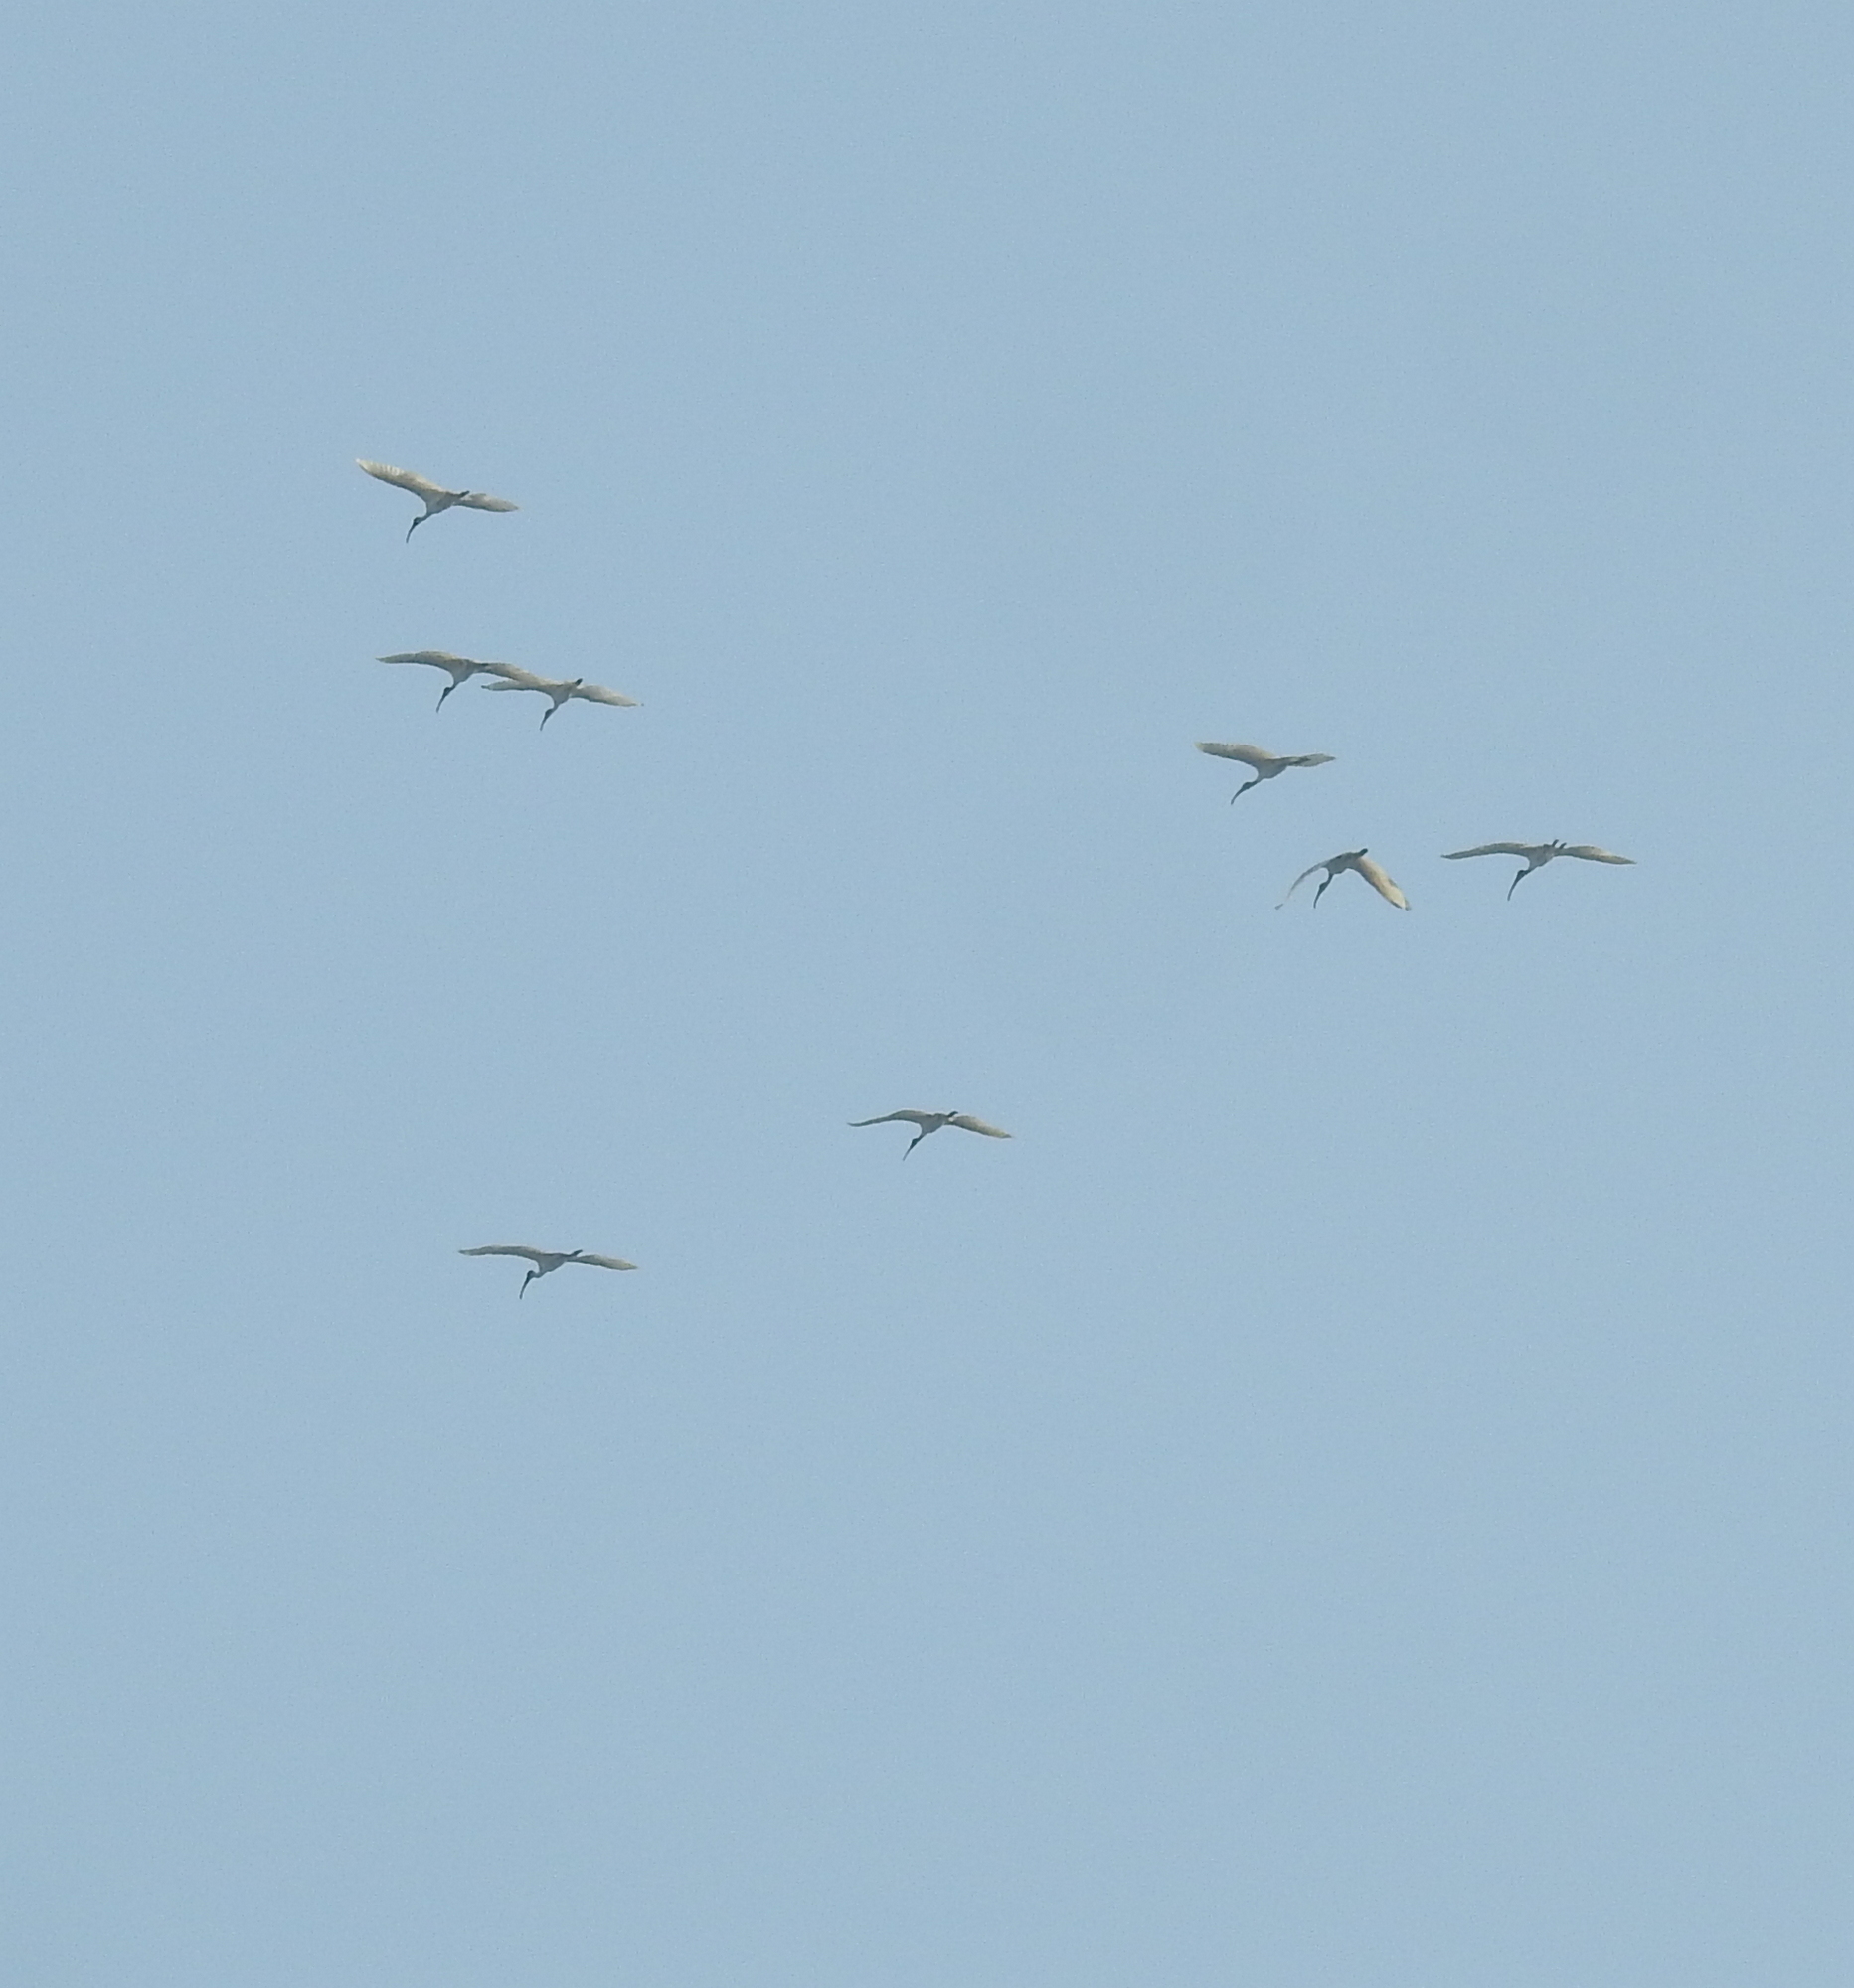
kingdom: Animalia
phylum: Chordata
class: Aves
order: Pelecaniformes
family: Threskiornithidae
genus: Threskiornis
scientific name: Threskiornis melanocephalus
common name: Black-headed ibis
